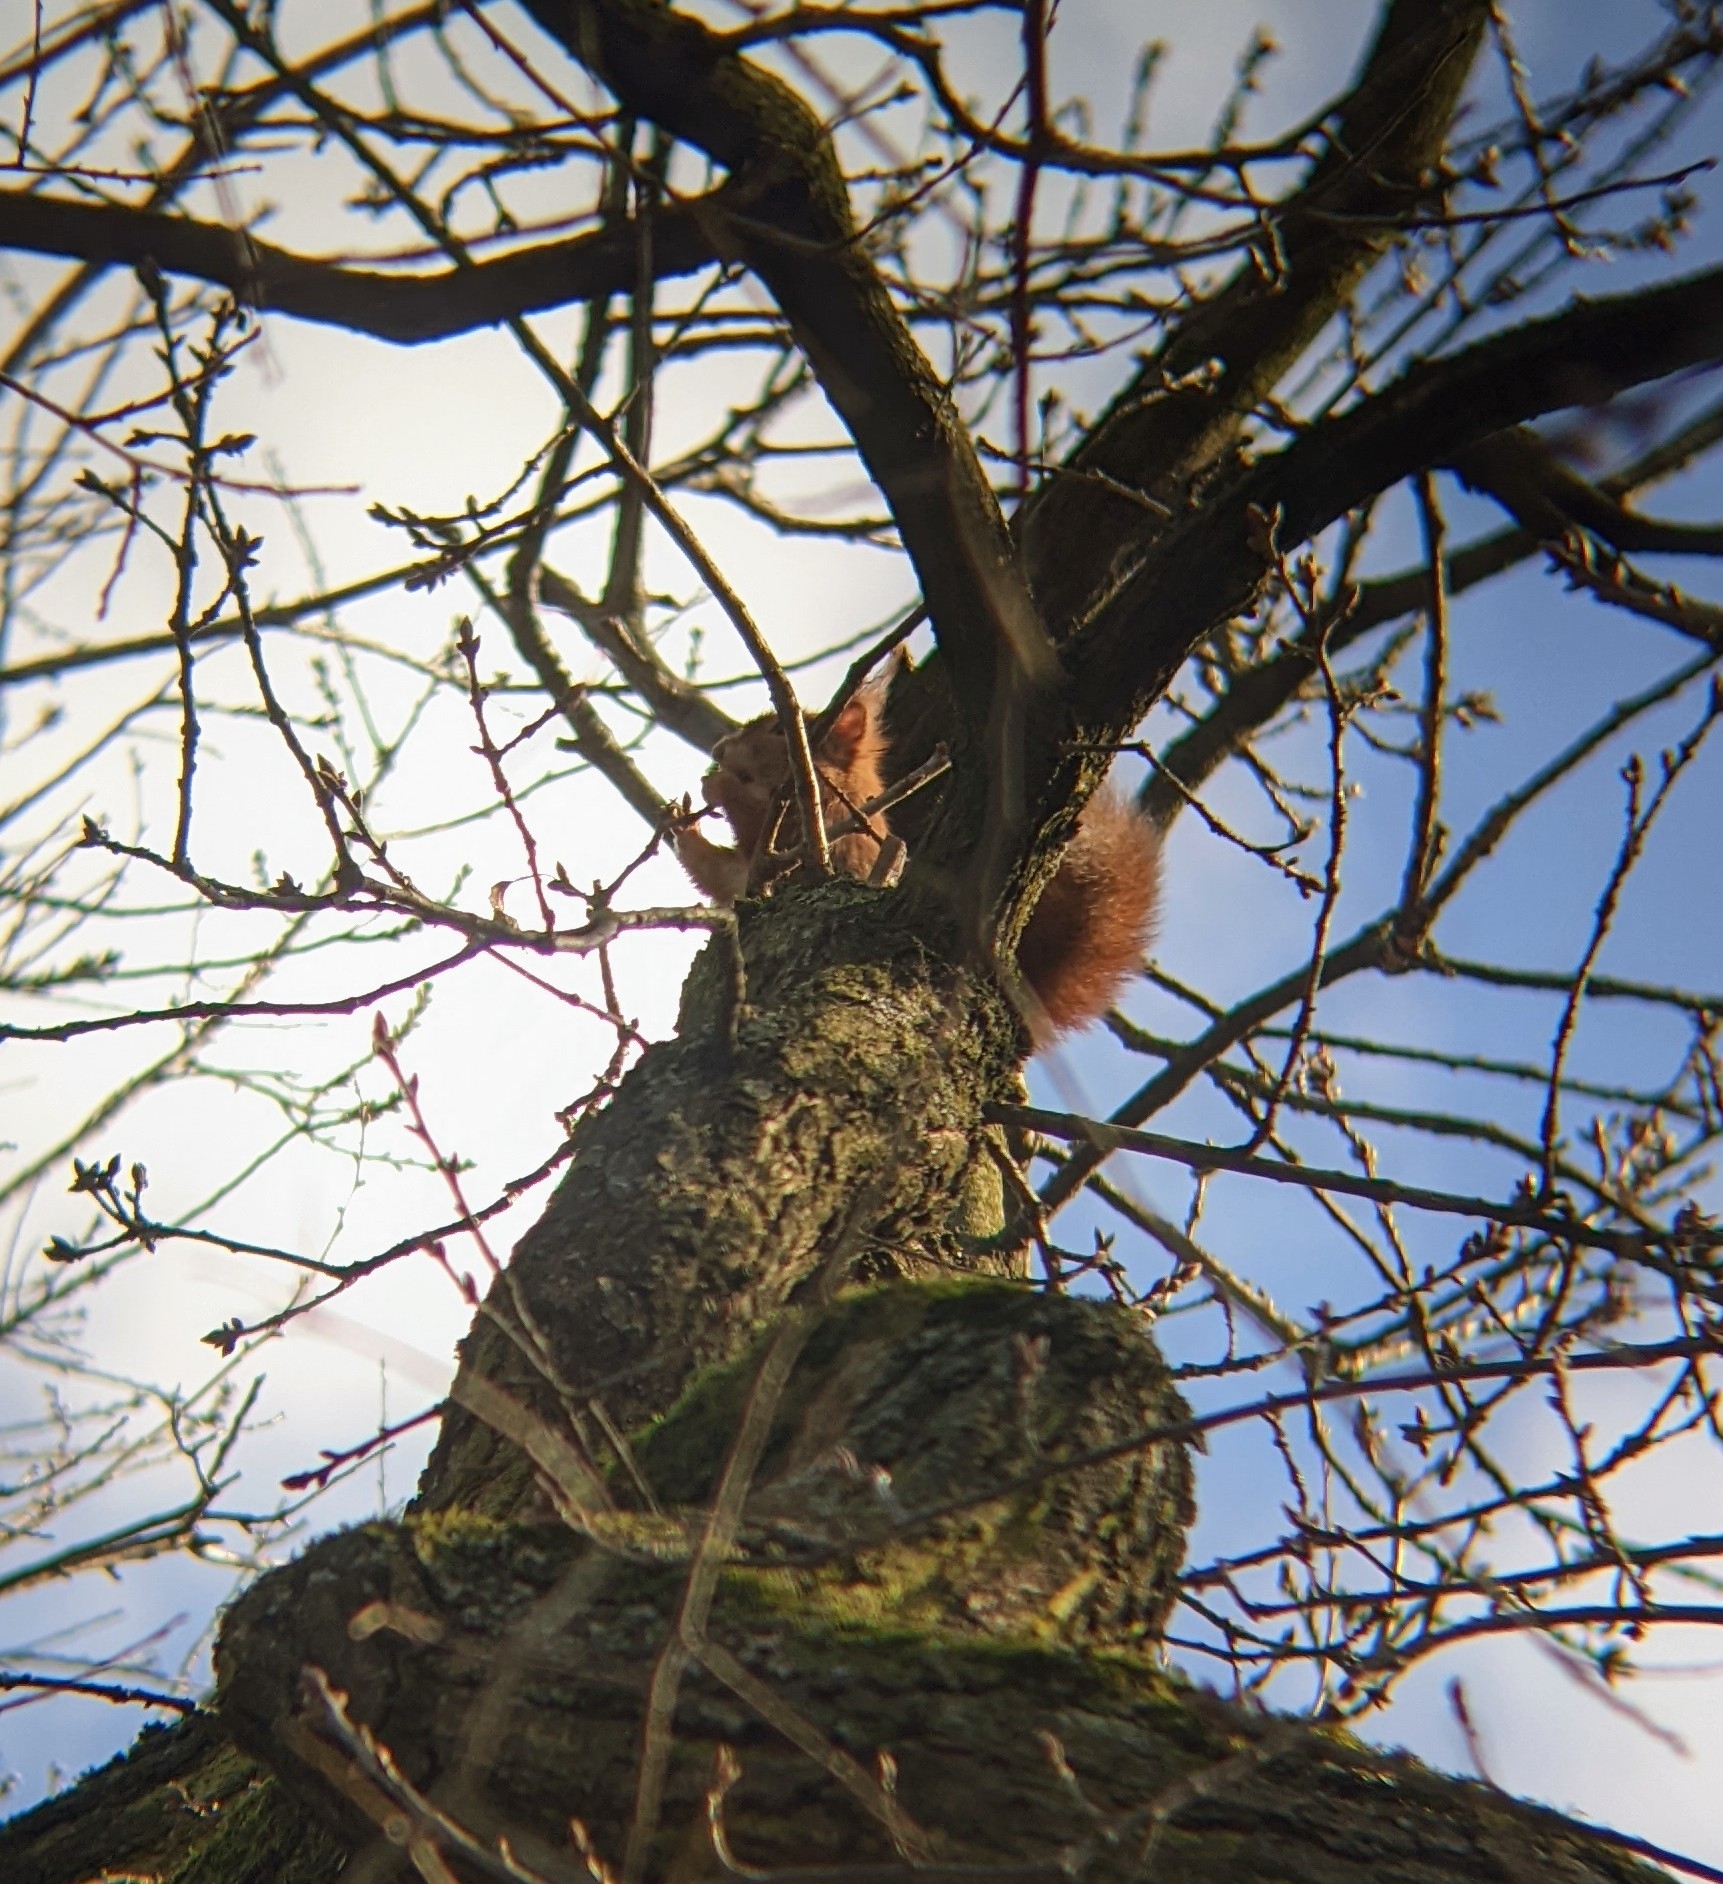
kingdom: Animalia
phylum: Chordata
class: Mammalia
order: Rodentia
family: Sciuridae
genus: Sciurus
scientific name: Sciurus vulgaris
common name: Eurasian red squirrel
